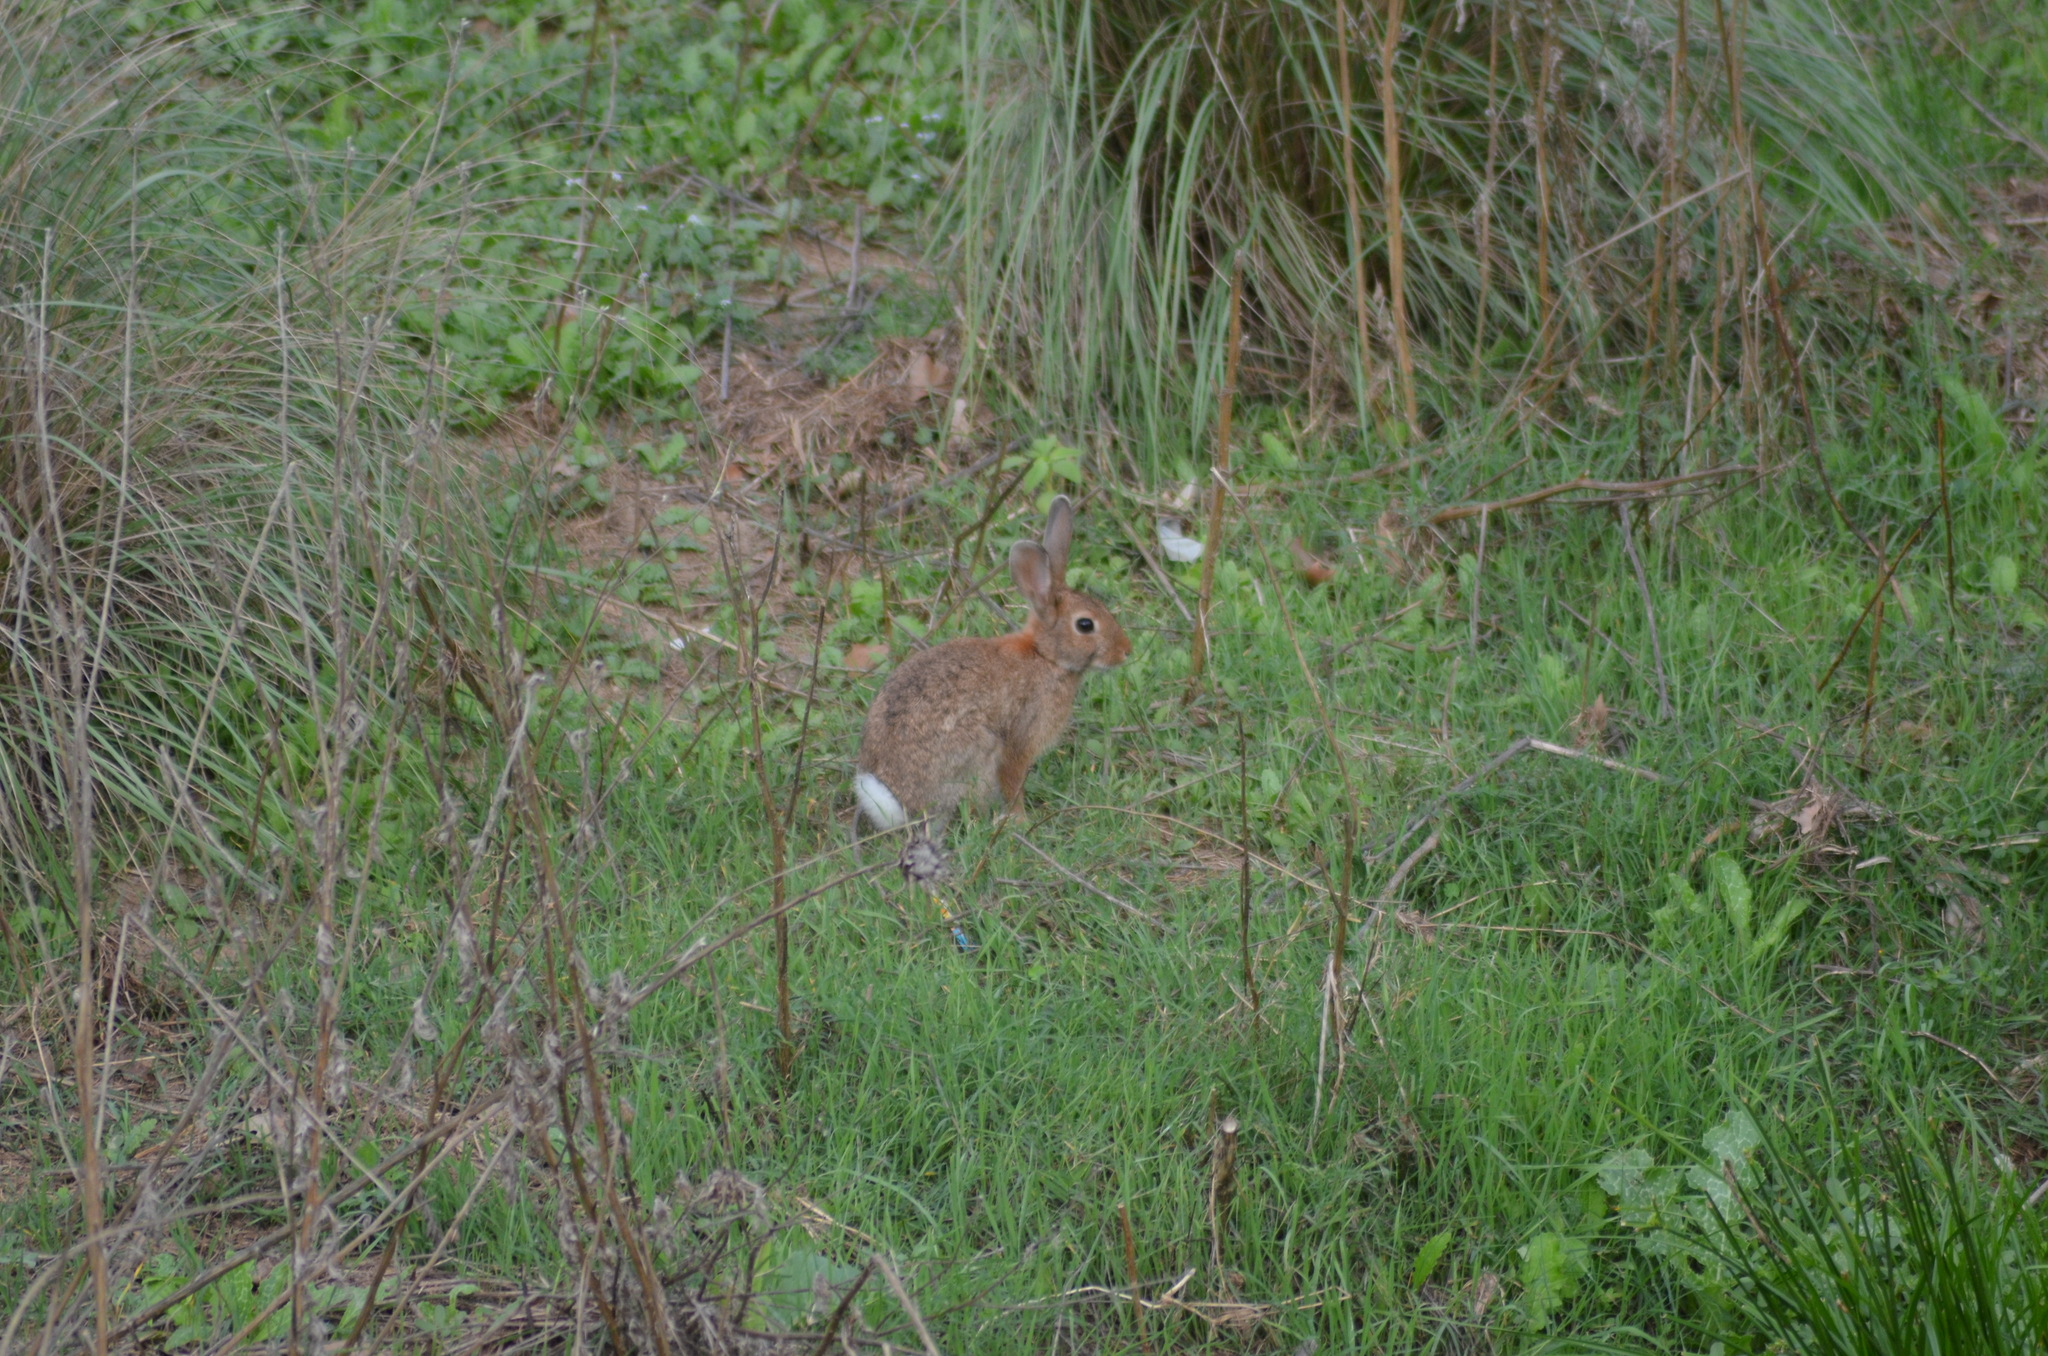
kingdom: Animalia
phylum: Chordata
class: Mammalia
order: Lagomorpha
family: Leporidae
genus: Oryctolagus
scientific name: Oryctolagus cuniculus
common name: European rabbit
